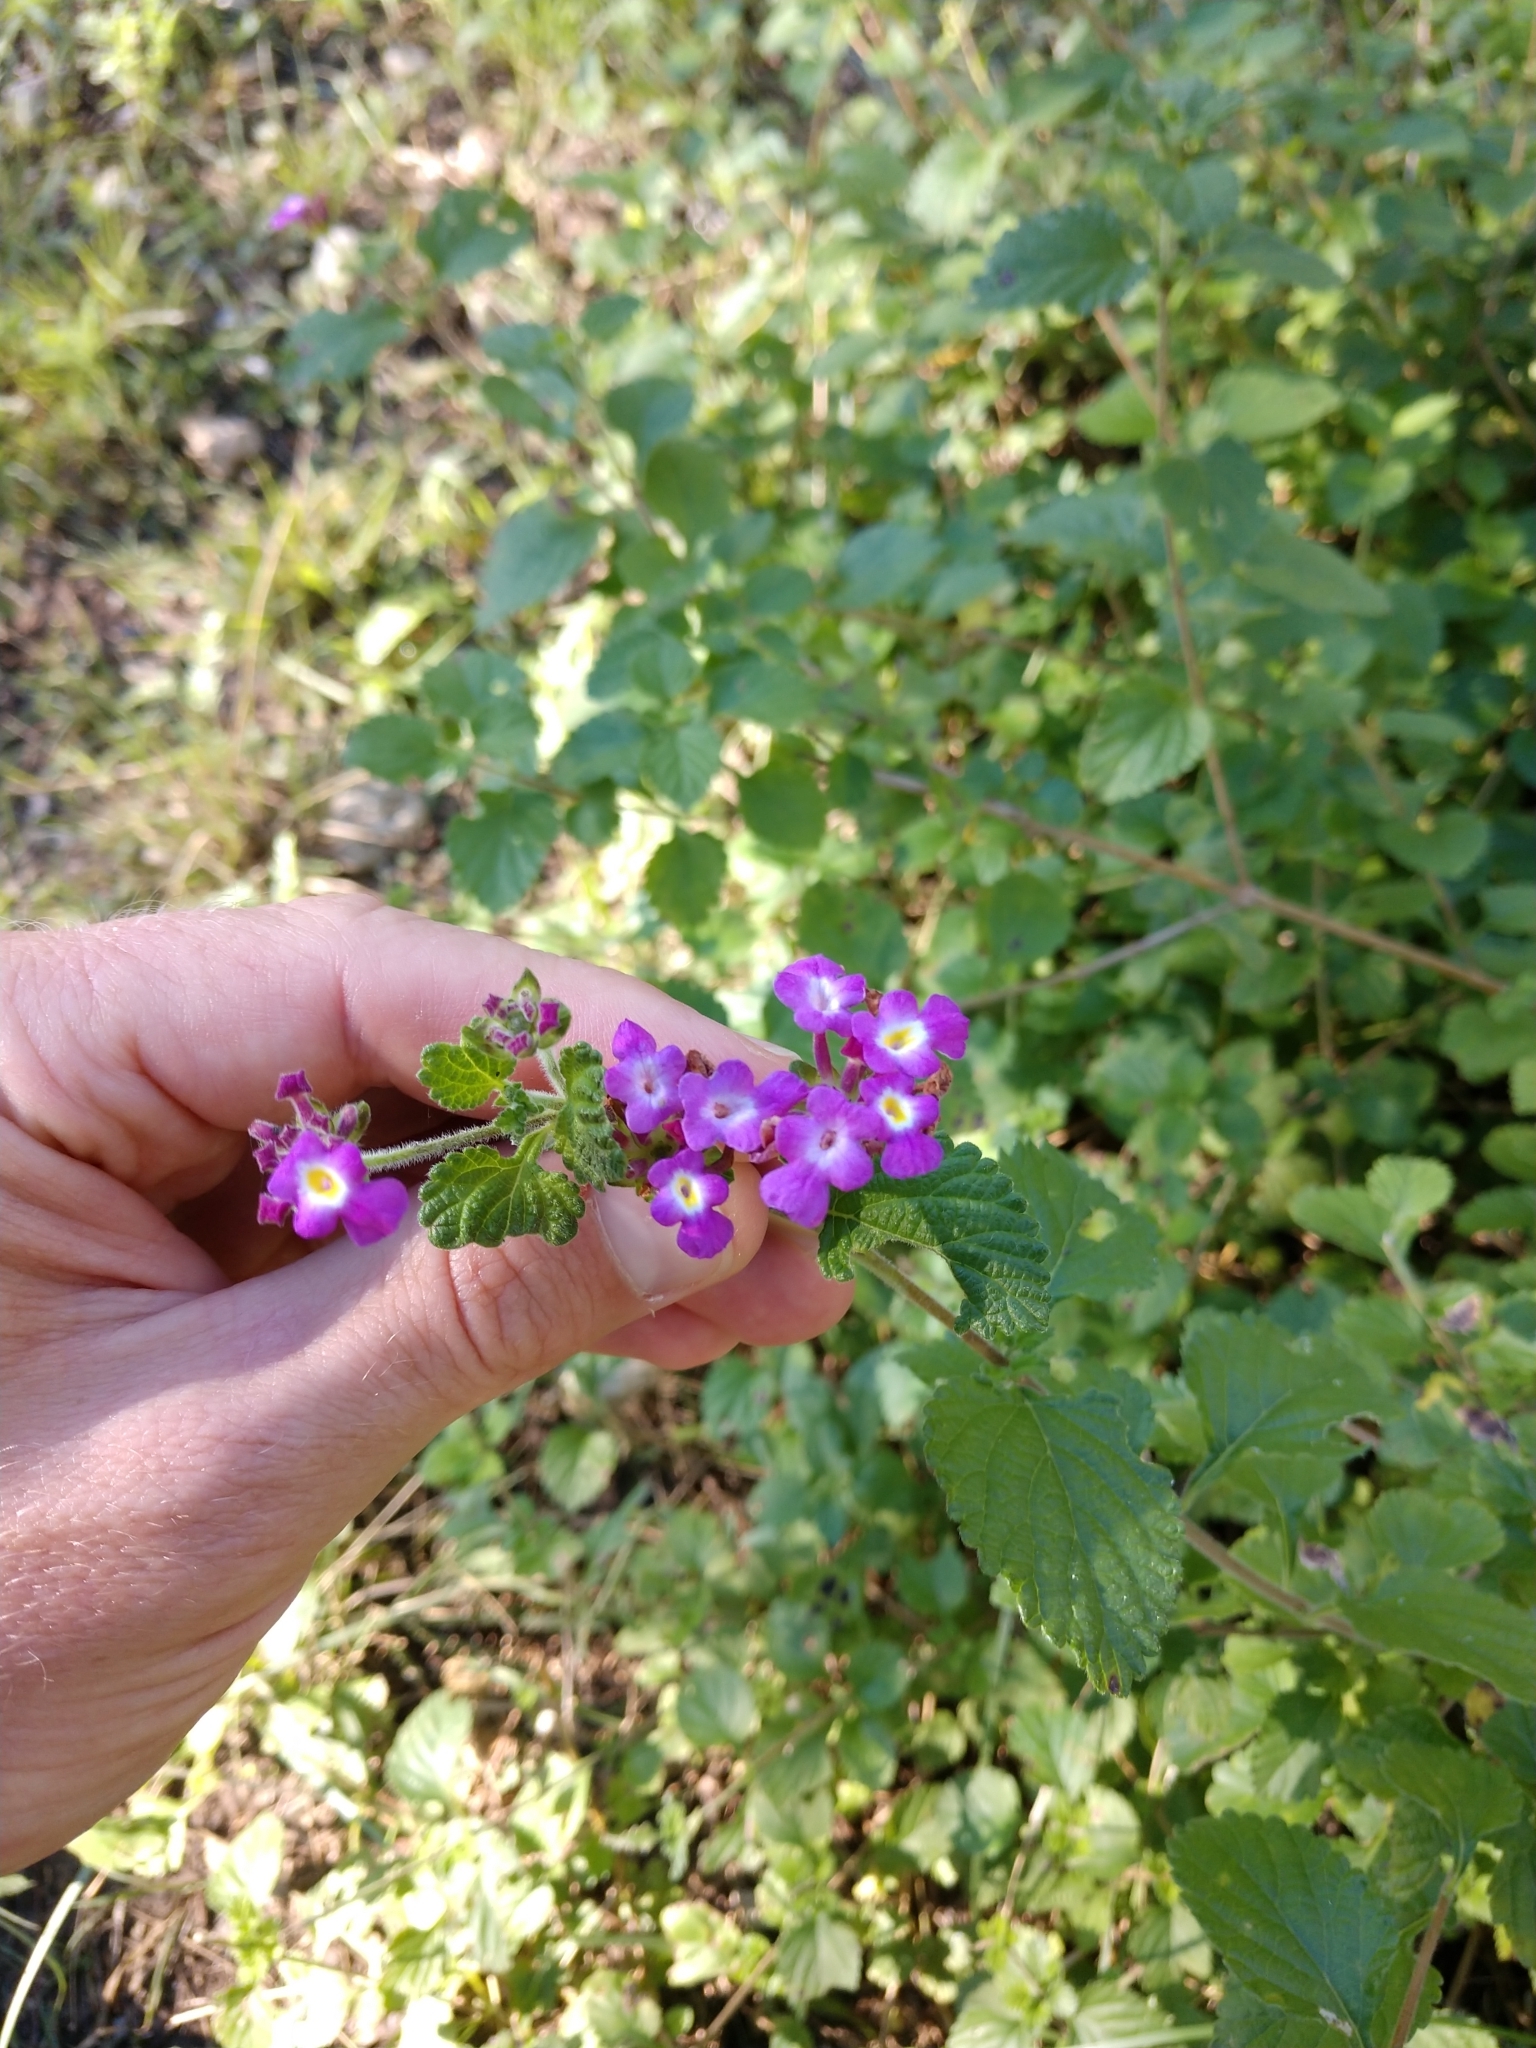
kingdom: Plantae
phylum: Tracheophyta
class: Magnoliopsida
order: Lamiales
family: Verbenaceae
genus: Lantana
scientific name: Lantana montevidensis
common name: Trailing shrubverbena
